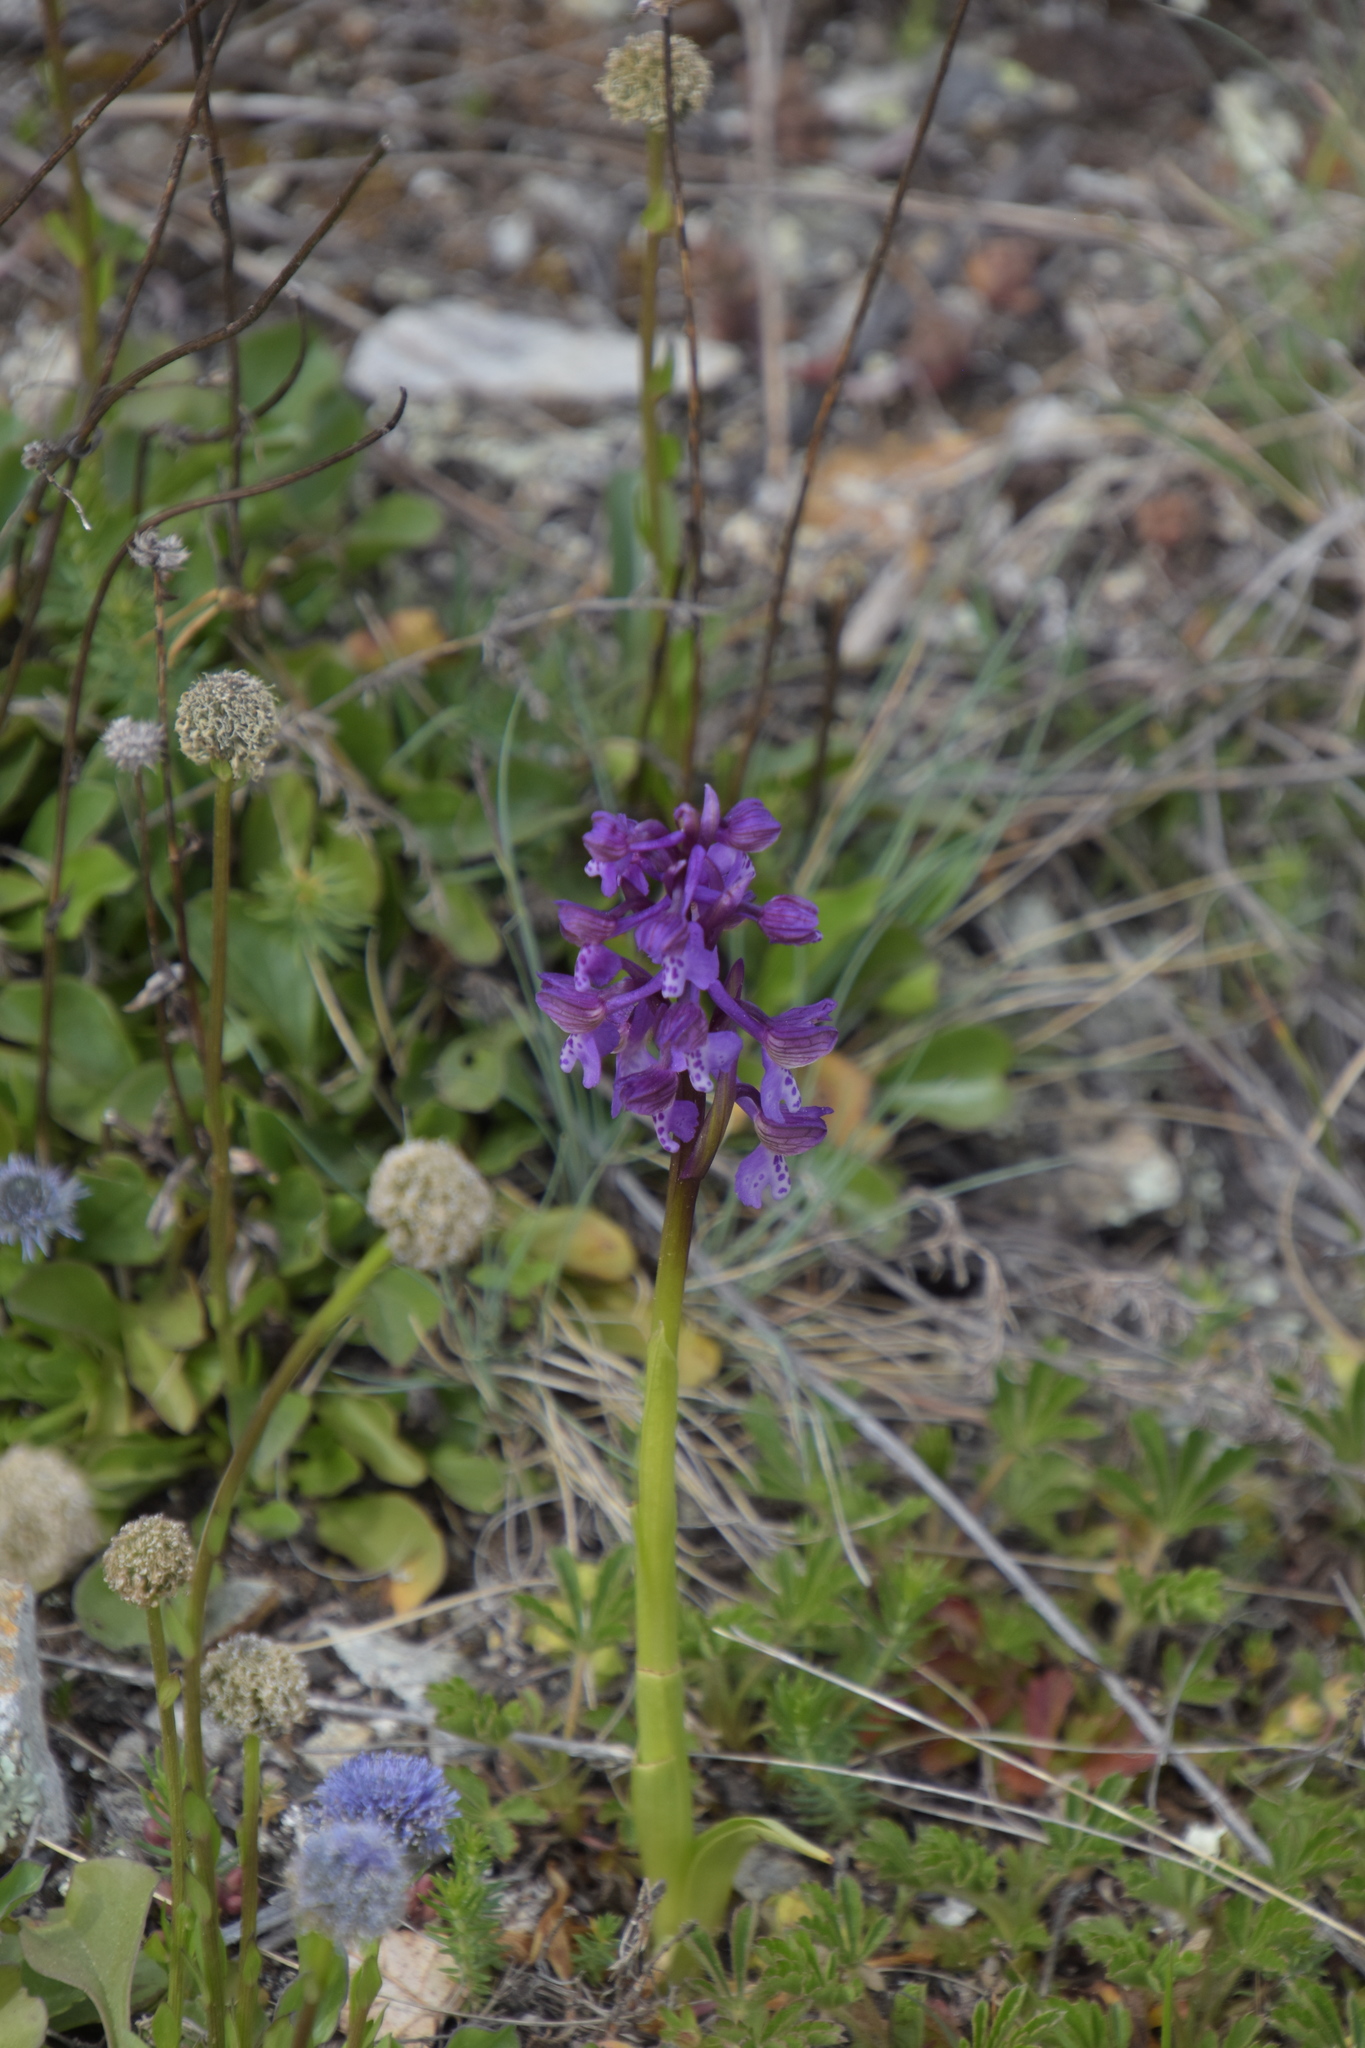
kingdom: Plantae
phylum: Tracheophyta
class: Liliopsida
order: Asparagales
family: Orchidaceae
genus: Anacamptis
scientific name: Anacamptis morio
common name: Green-winged orchid
